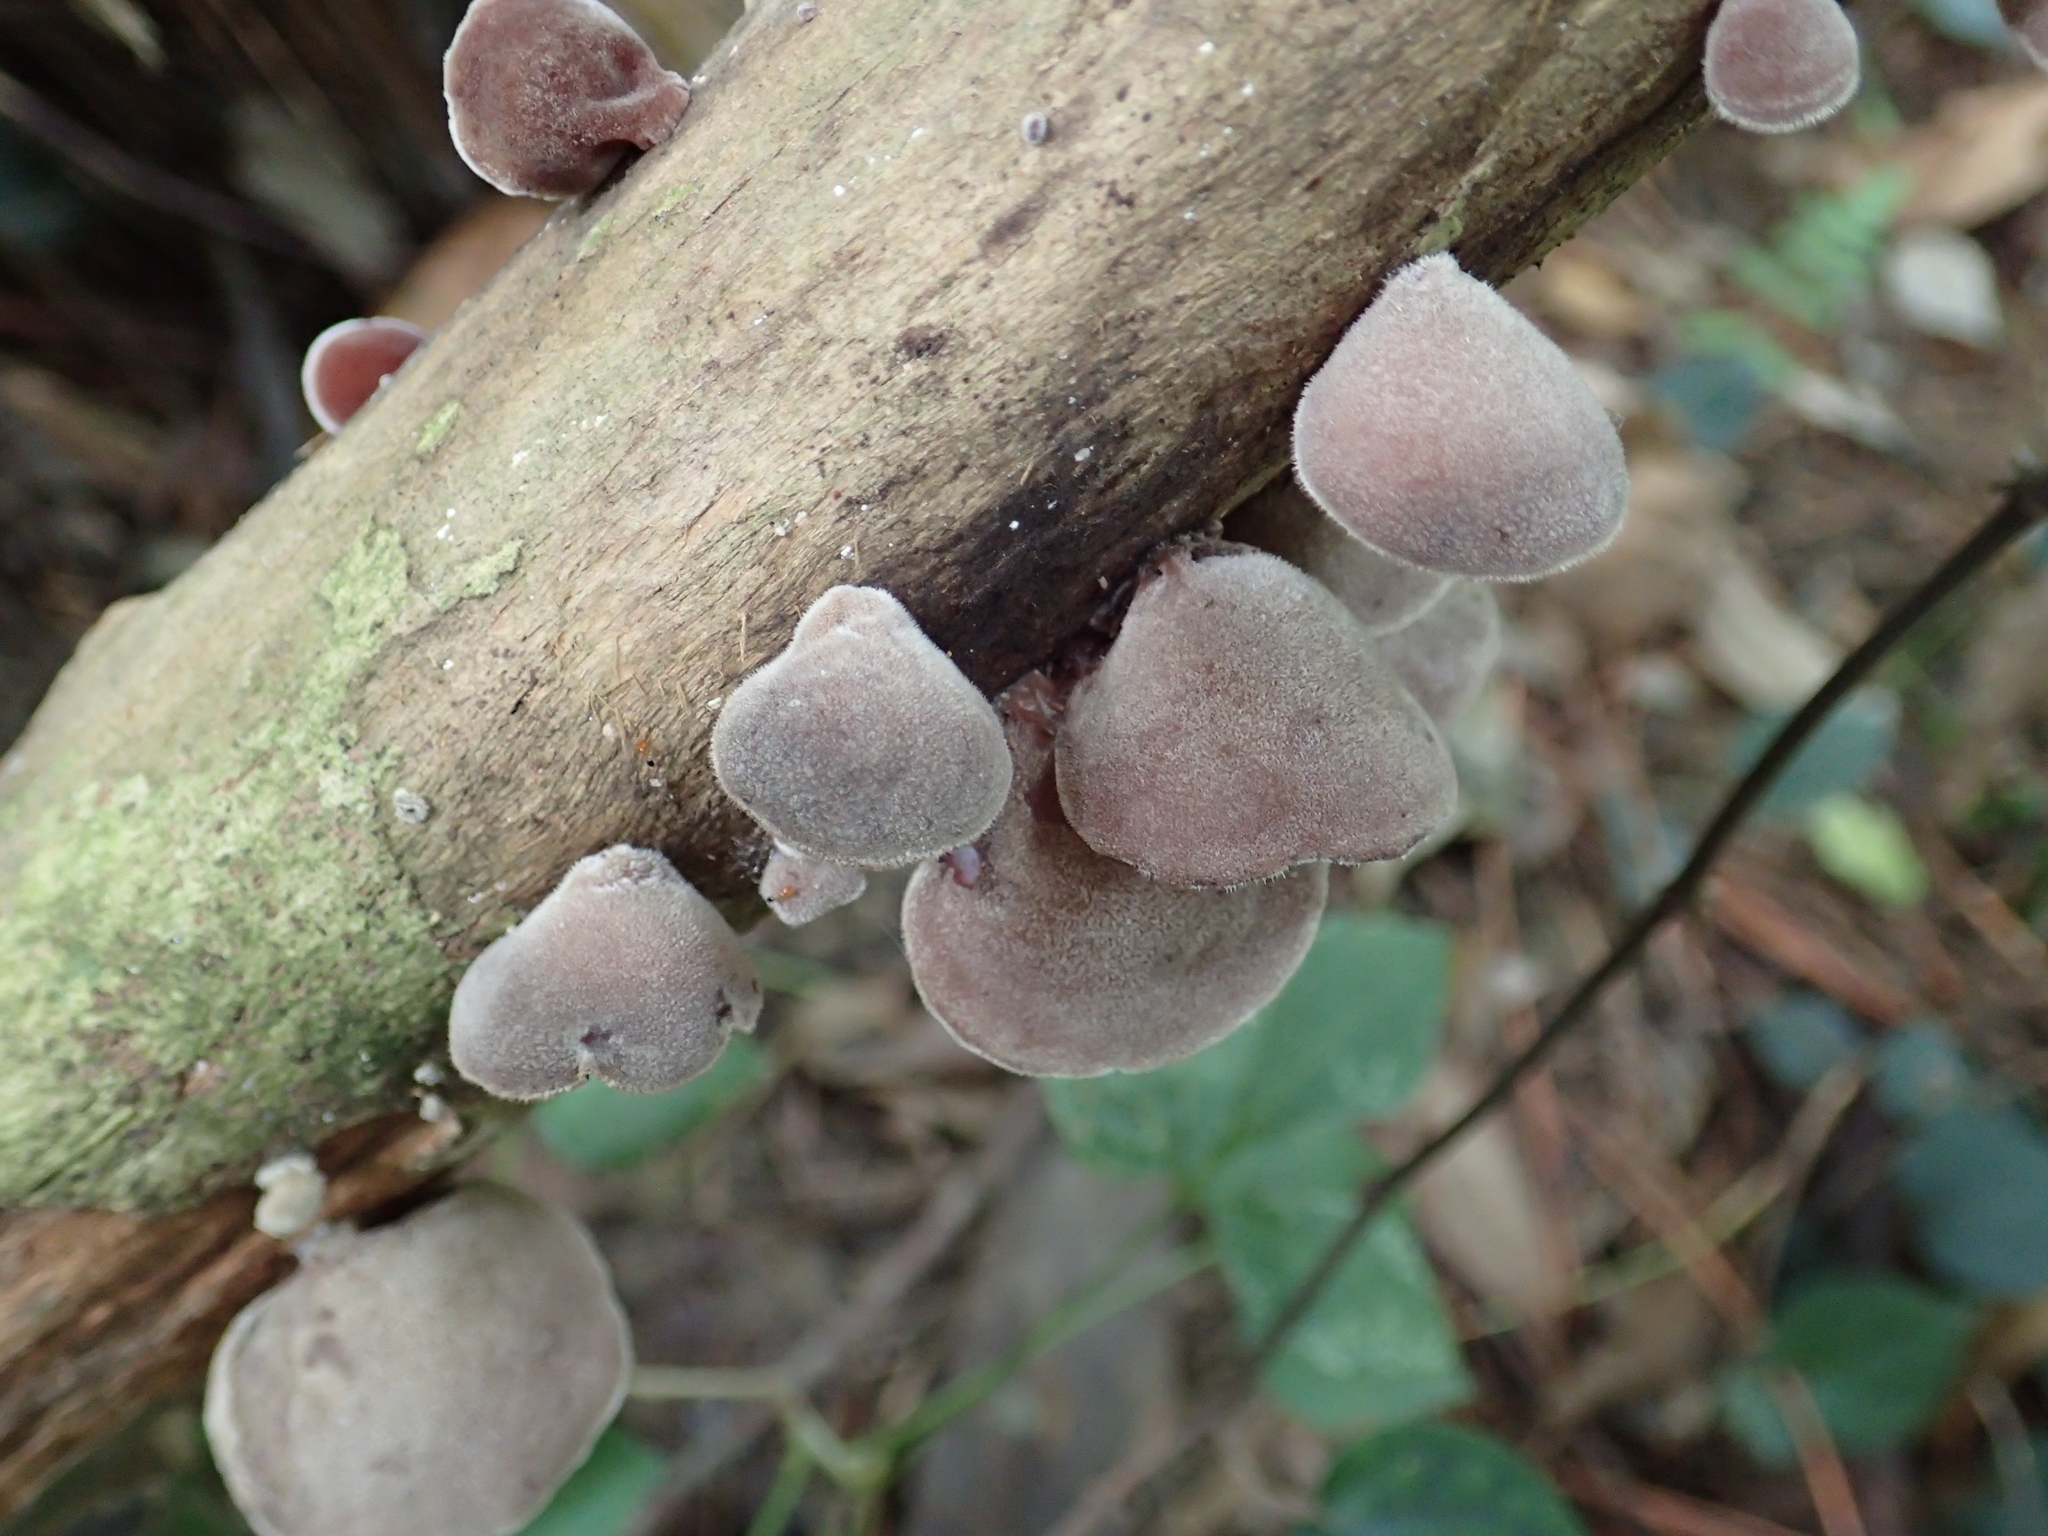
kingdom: Fungi
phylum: Basidiomycota
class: Agaricomycetes
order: Auriculariales
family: Auriculariaceae
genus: Auricularia
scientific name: Auricularia nigricans
